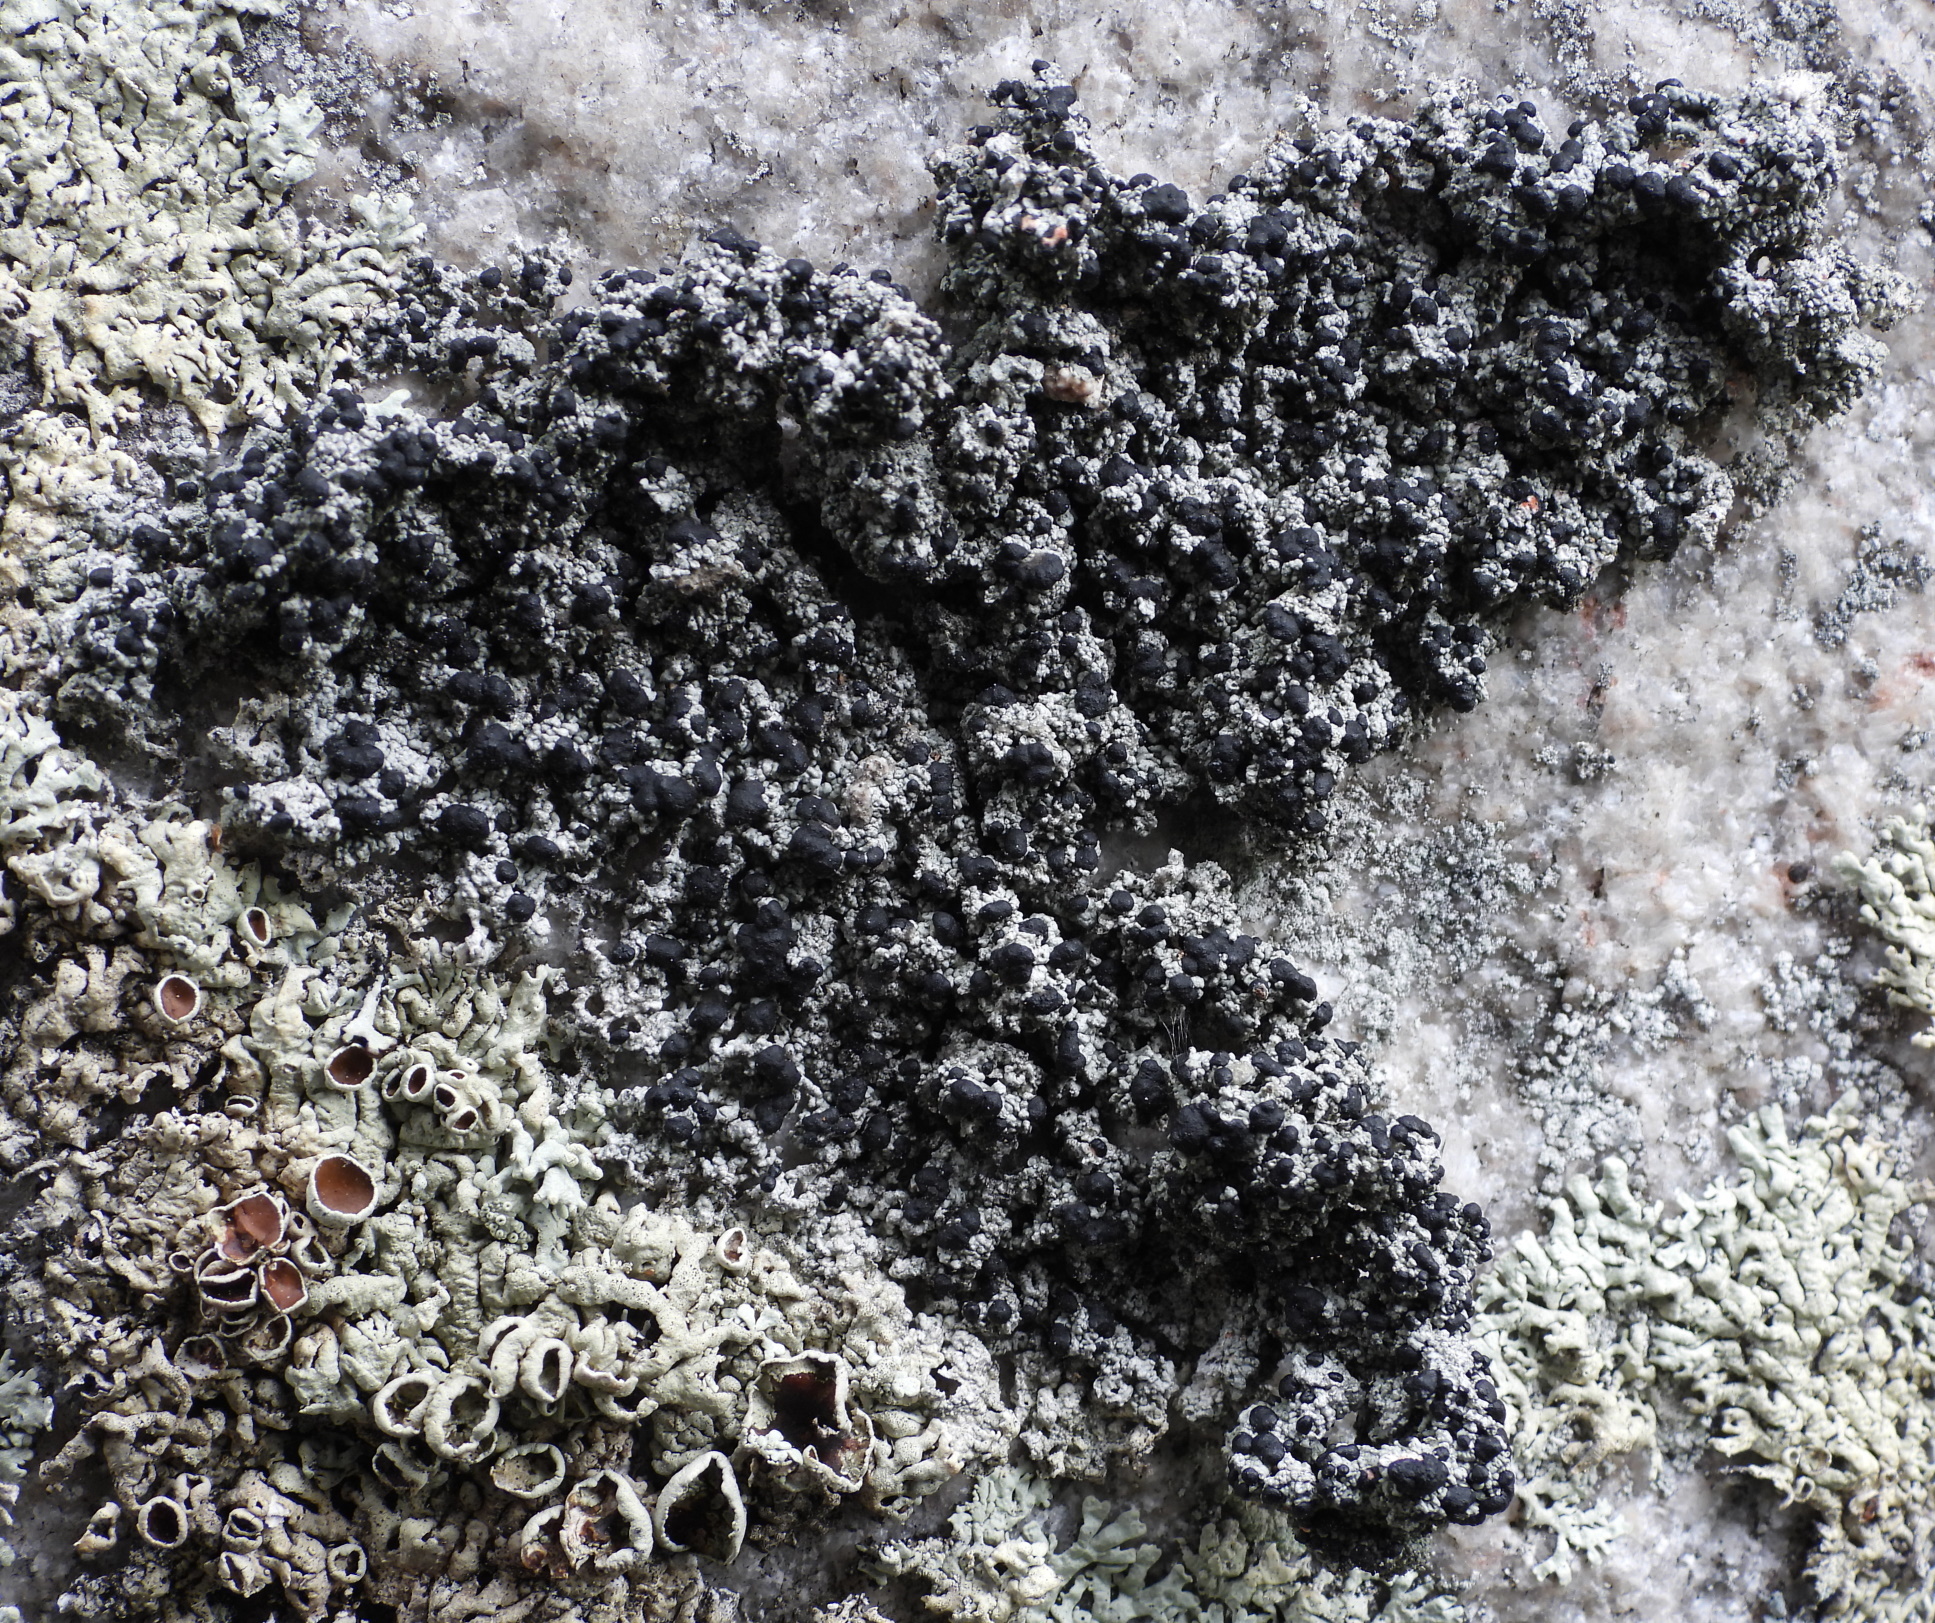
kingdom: Fungi
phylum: Ascomycota
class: Lecanoromycetes
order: Lecanorales
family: Tephromelataceae
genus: Mycoblastus
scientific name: Mycoblastus sanguinarius
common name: Bloody-heart lichen
